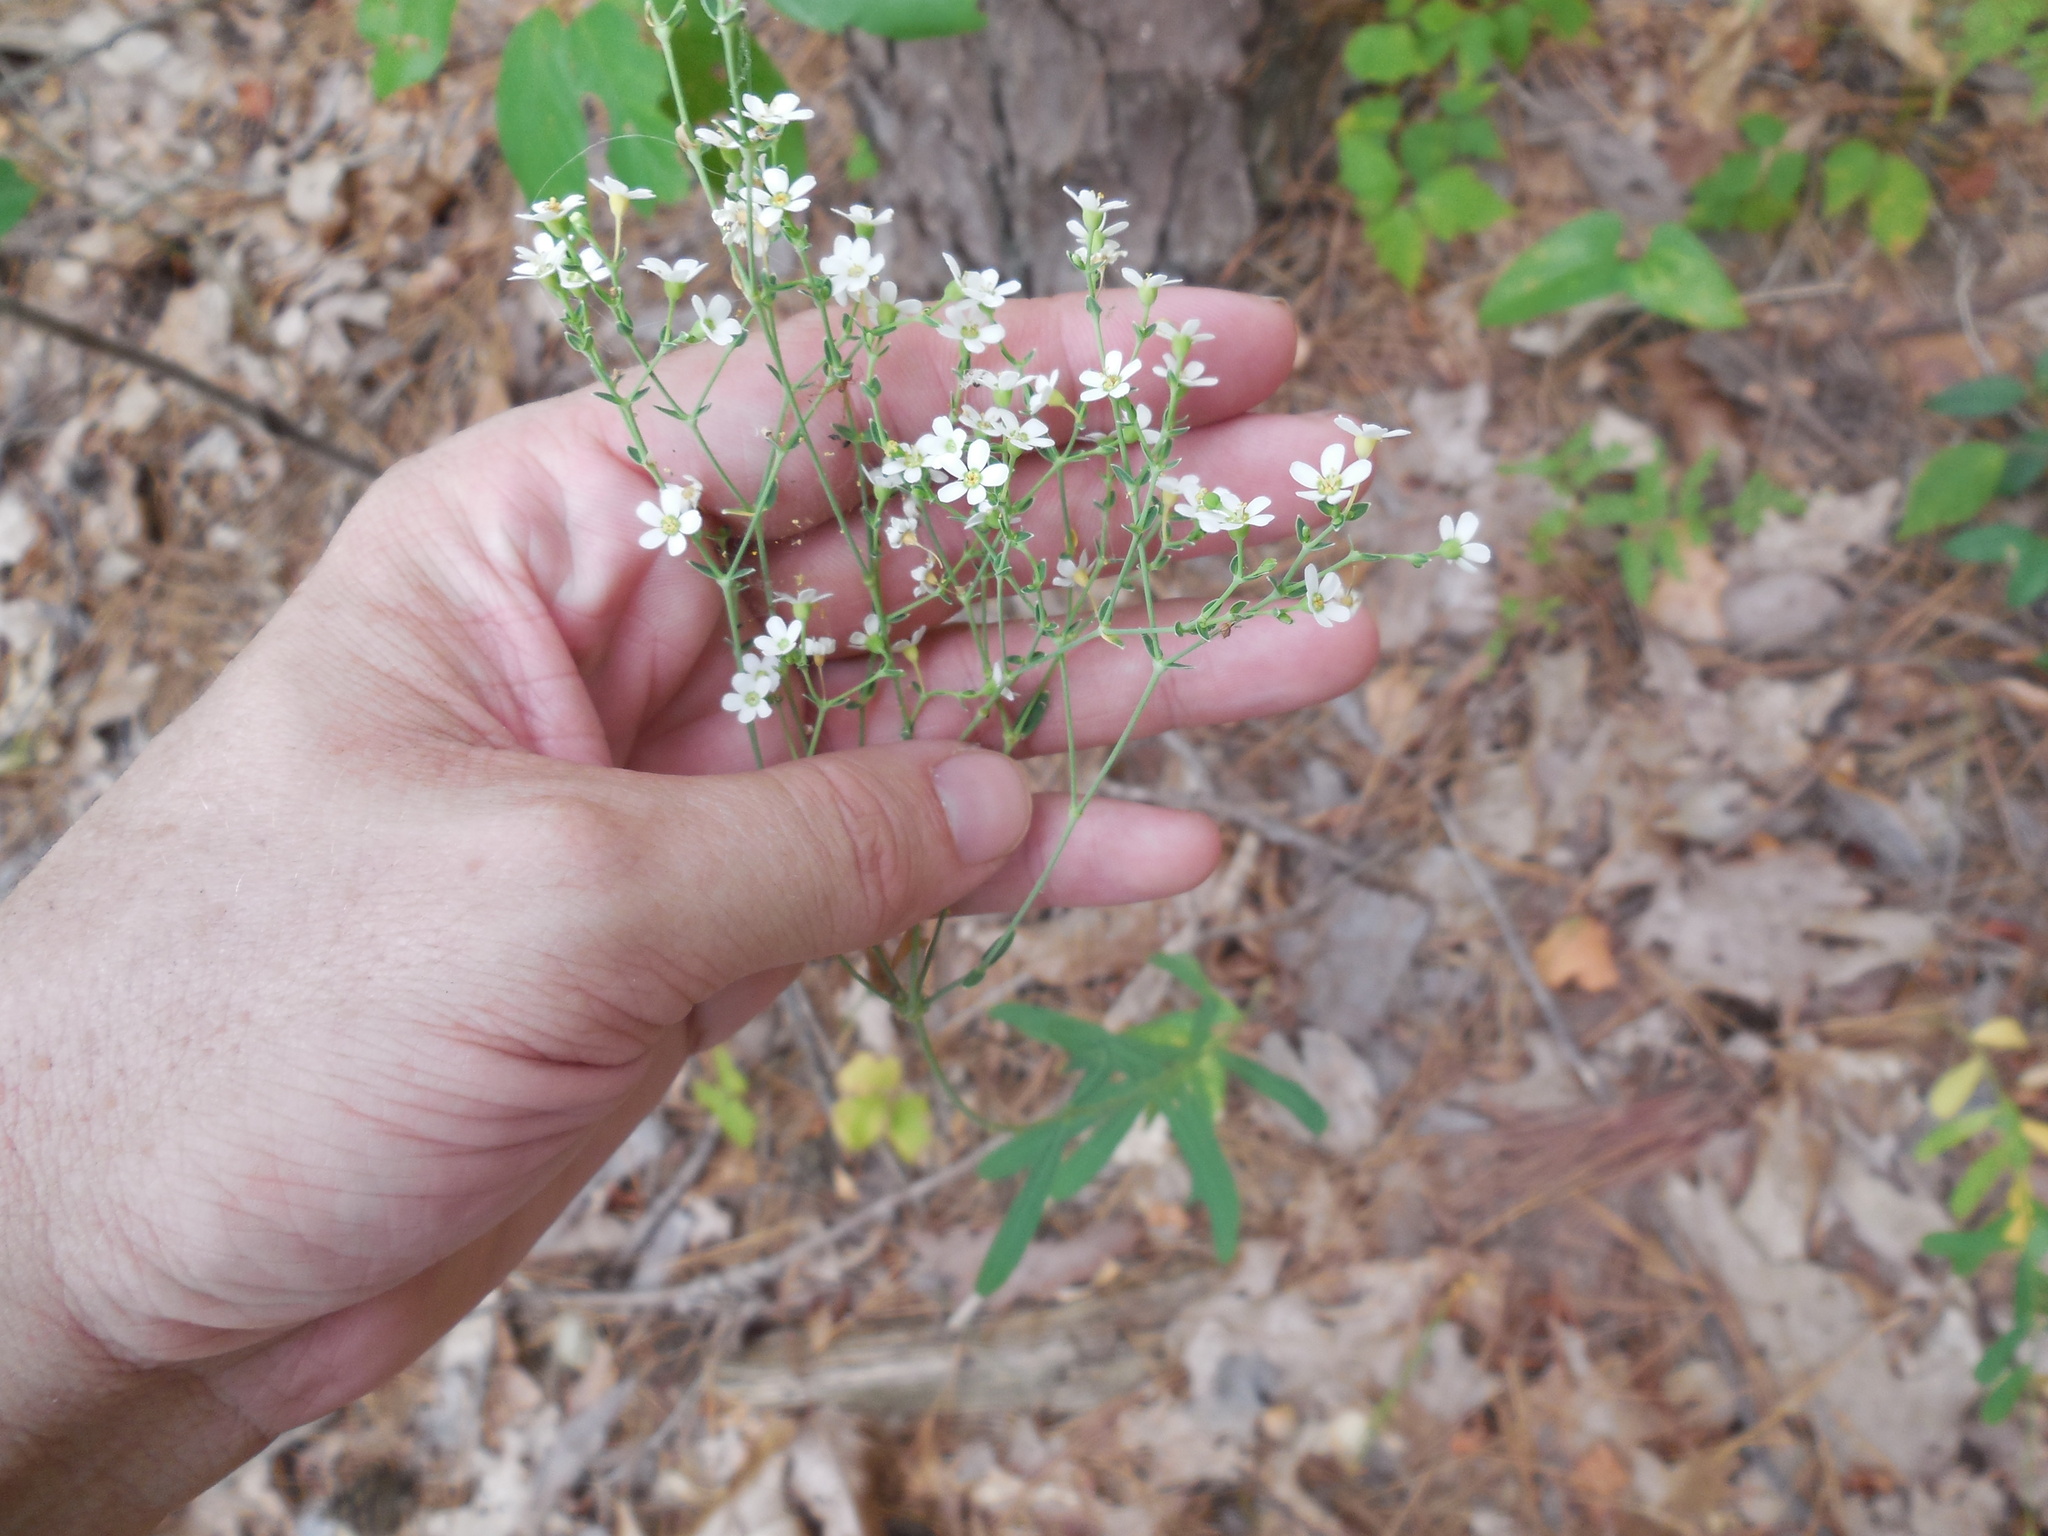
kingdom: Plantae
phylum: Tracheophyta
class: Magnoliopsida
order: Malpighiales
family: Euphorbiaceae
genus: Euphorbia
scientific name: Euphorbia corollata
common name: Flowering spurge
